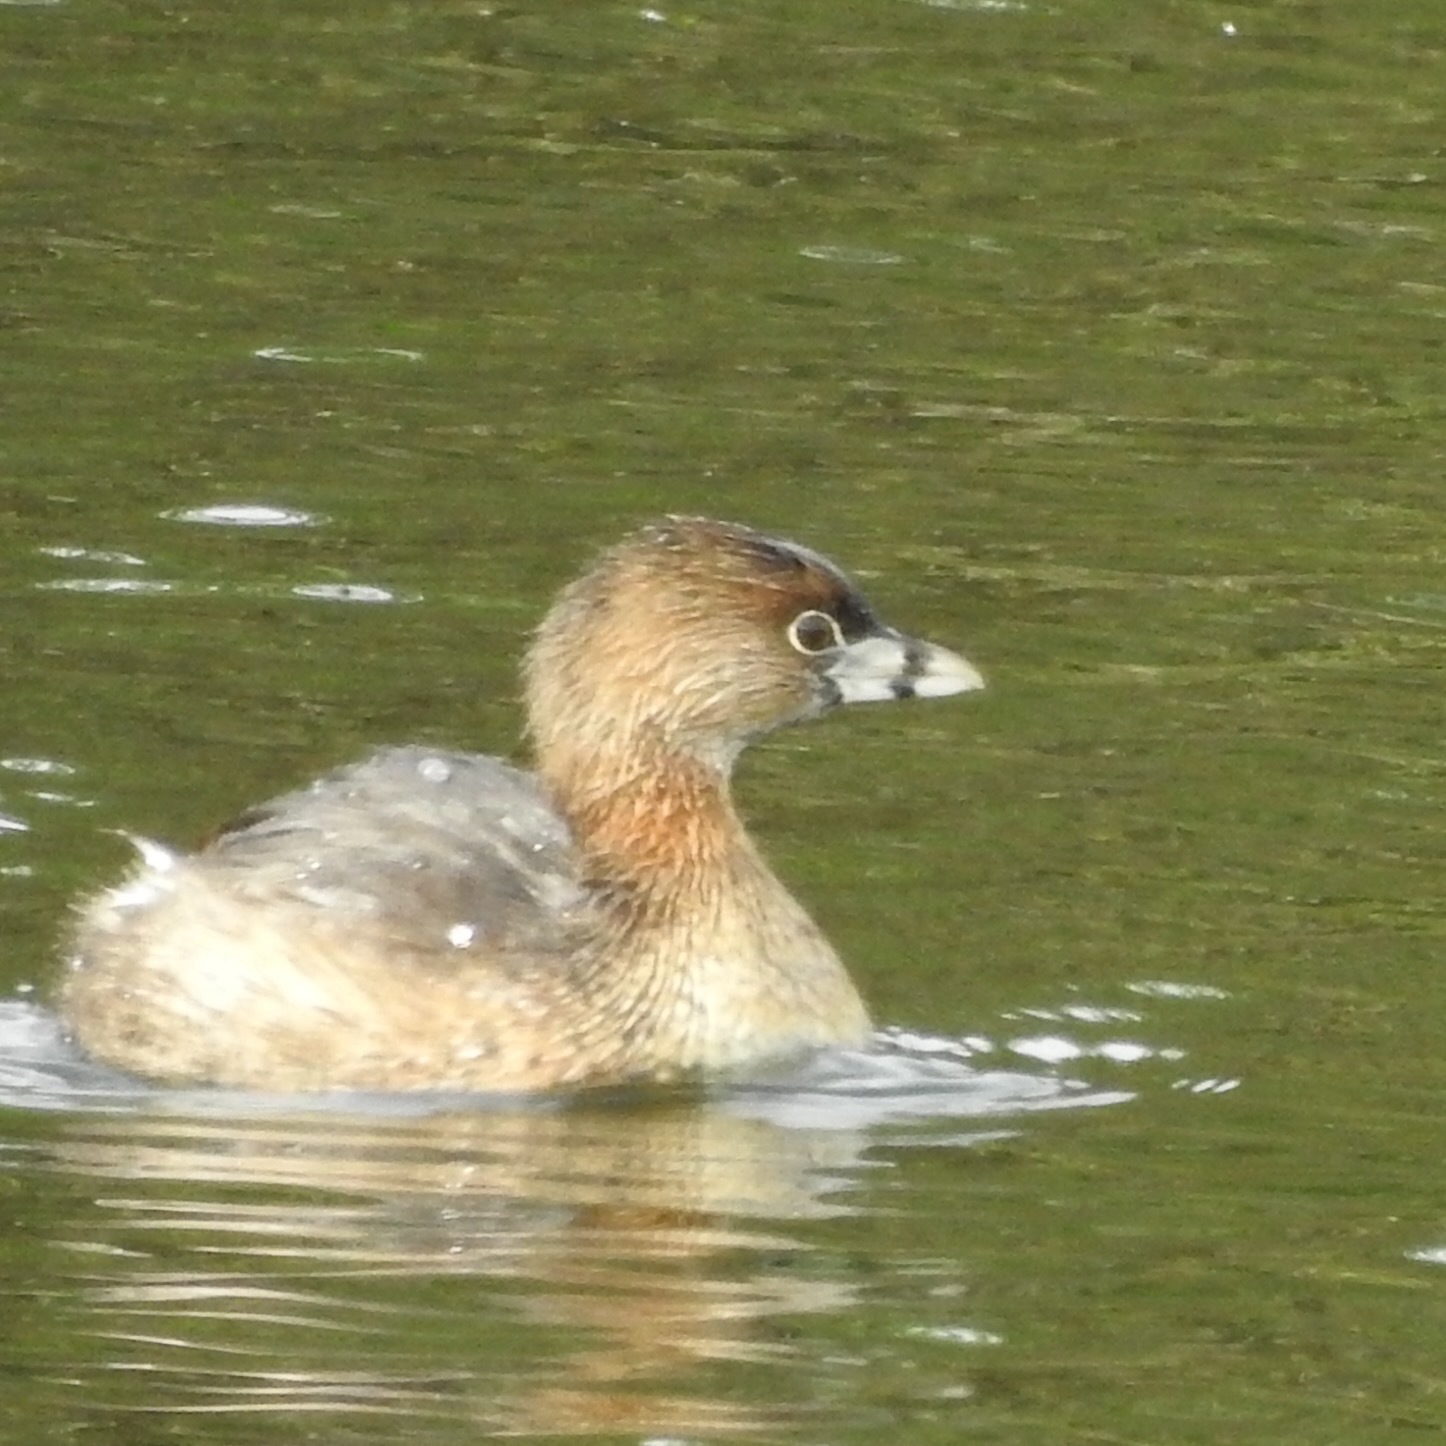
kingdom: Animalia
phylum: Chordata
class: Aves
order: Podicipediformes
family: Podicipedidae
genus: Podilymbus
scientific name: Podilymbus podiceps
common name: Pied-billed grebe
